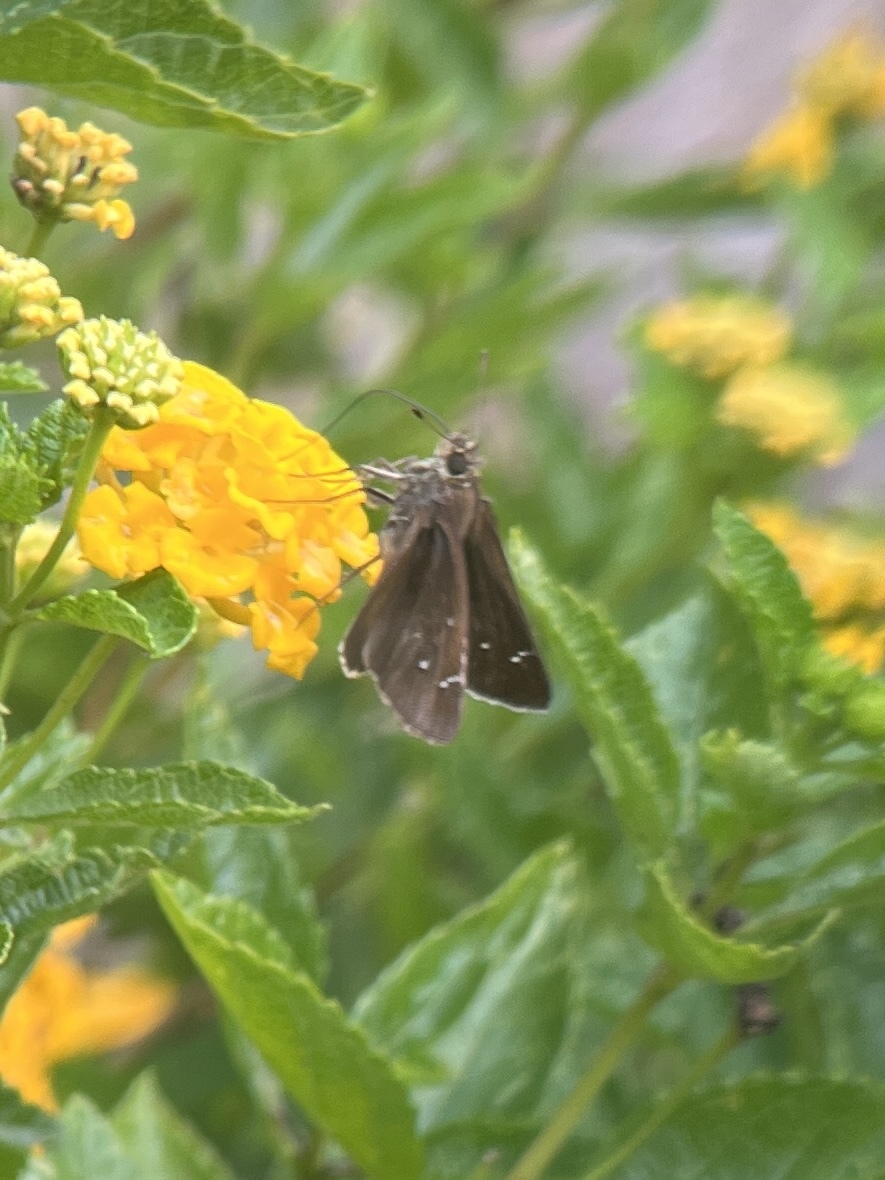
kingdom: Animalia
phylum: Arthropoda
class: Insecta
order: Lepidoptera
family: Hesperiidae
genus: Lerema
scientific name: Lerema accius
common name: Clouded skipper
